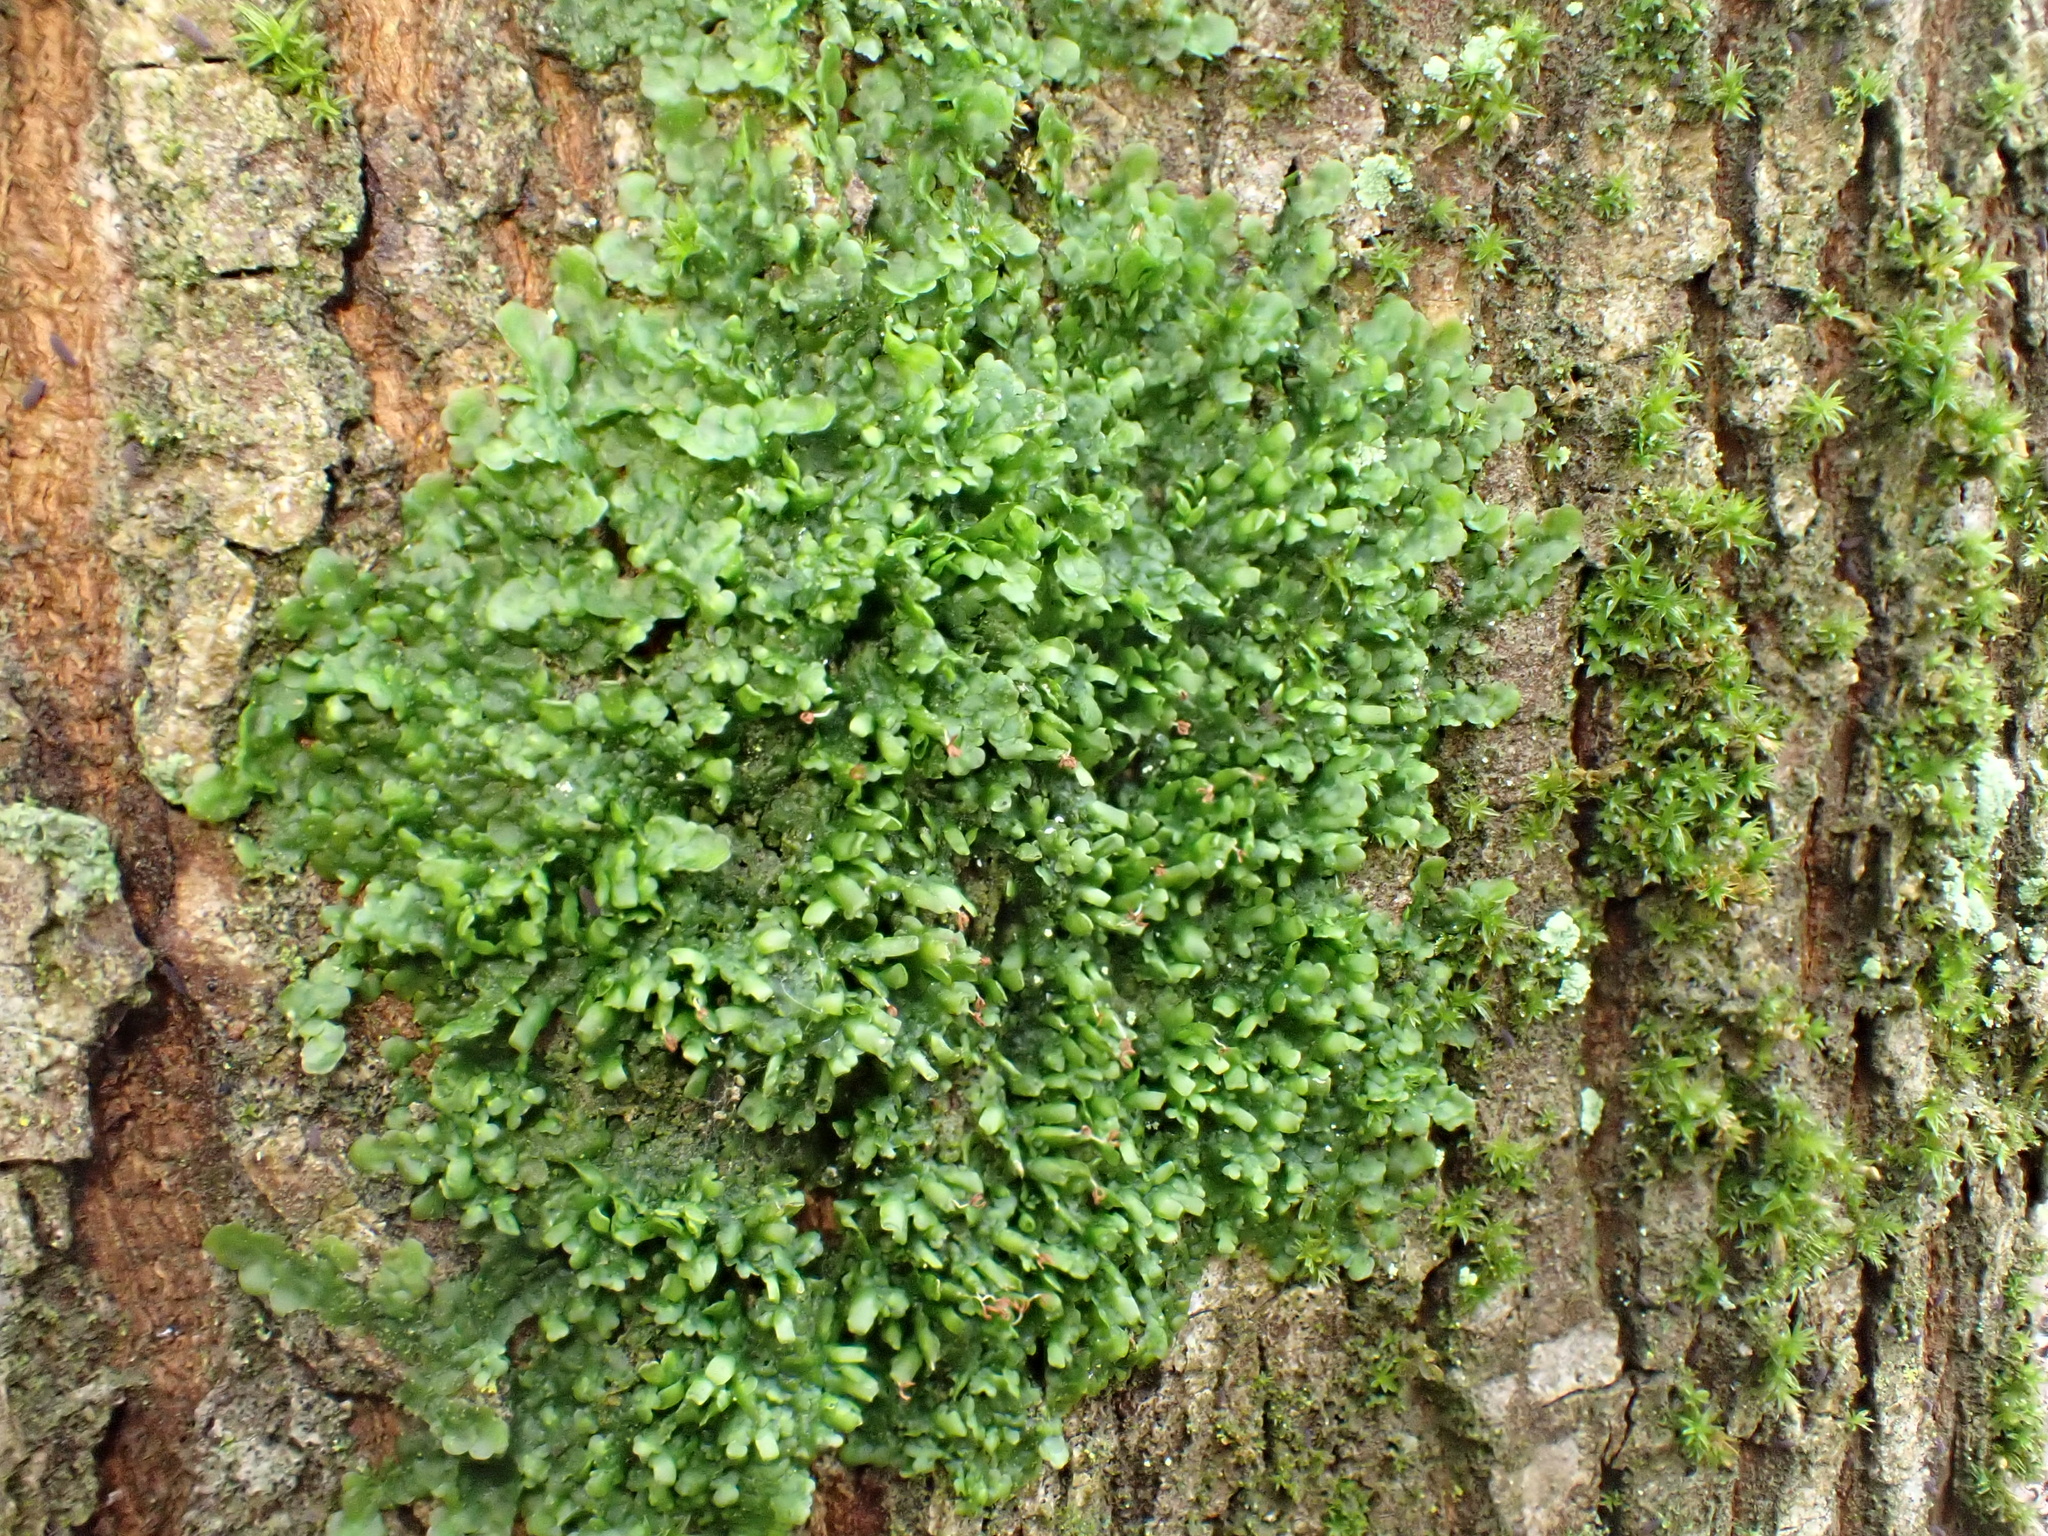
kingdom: Plantae
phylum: Marchantiophyta
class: Jungermanniopsida
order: Porellales
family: Radulaceae
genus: Radula
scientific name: Radula complanata
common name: Flat-leaved scalewort
